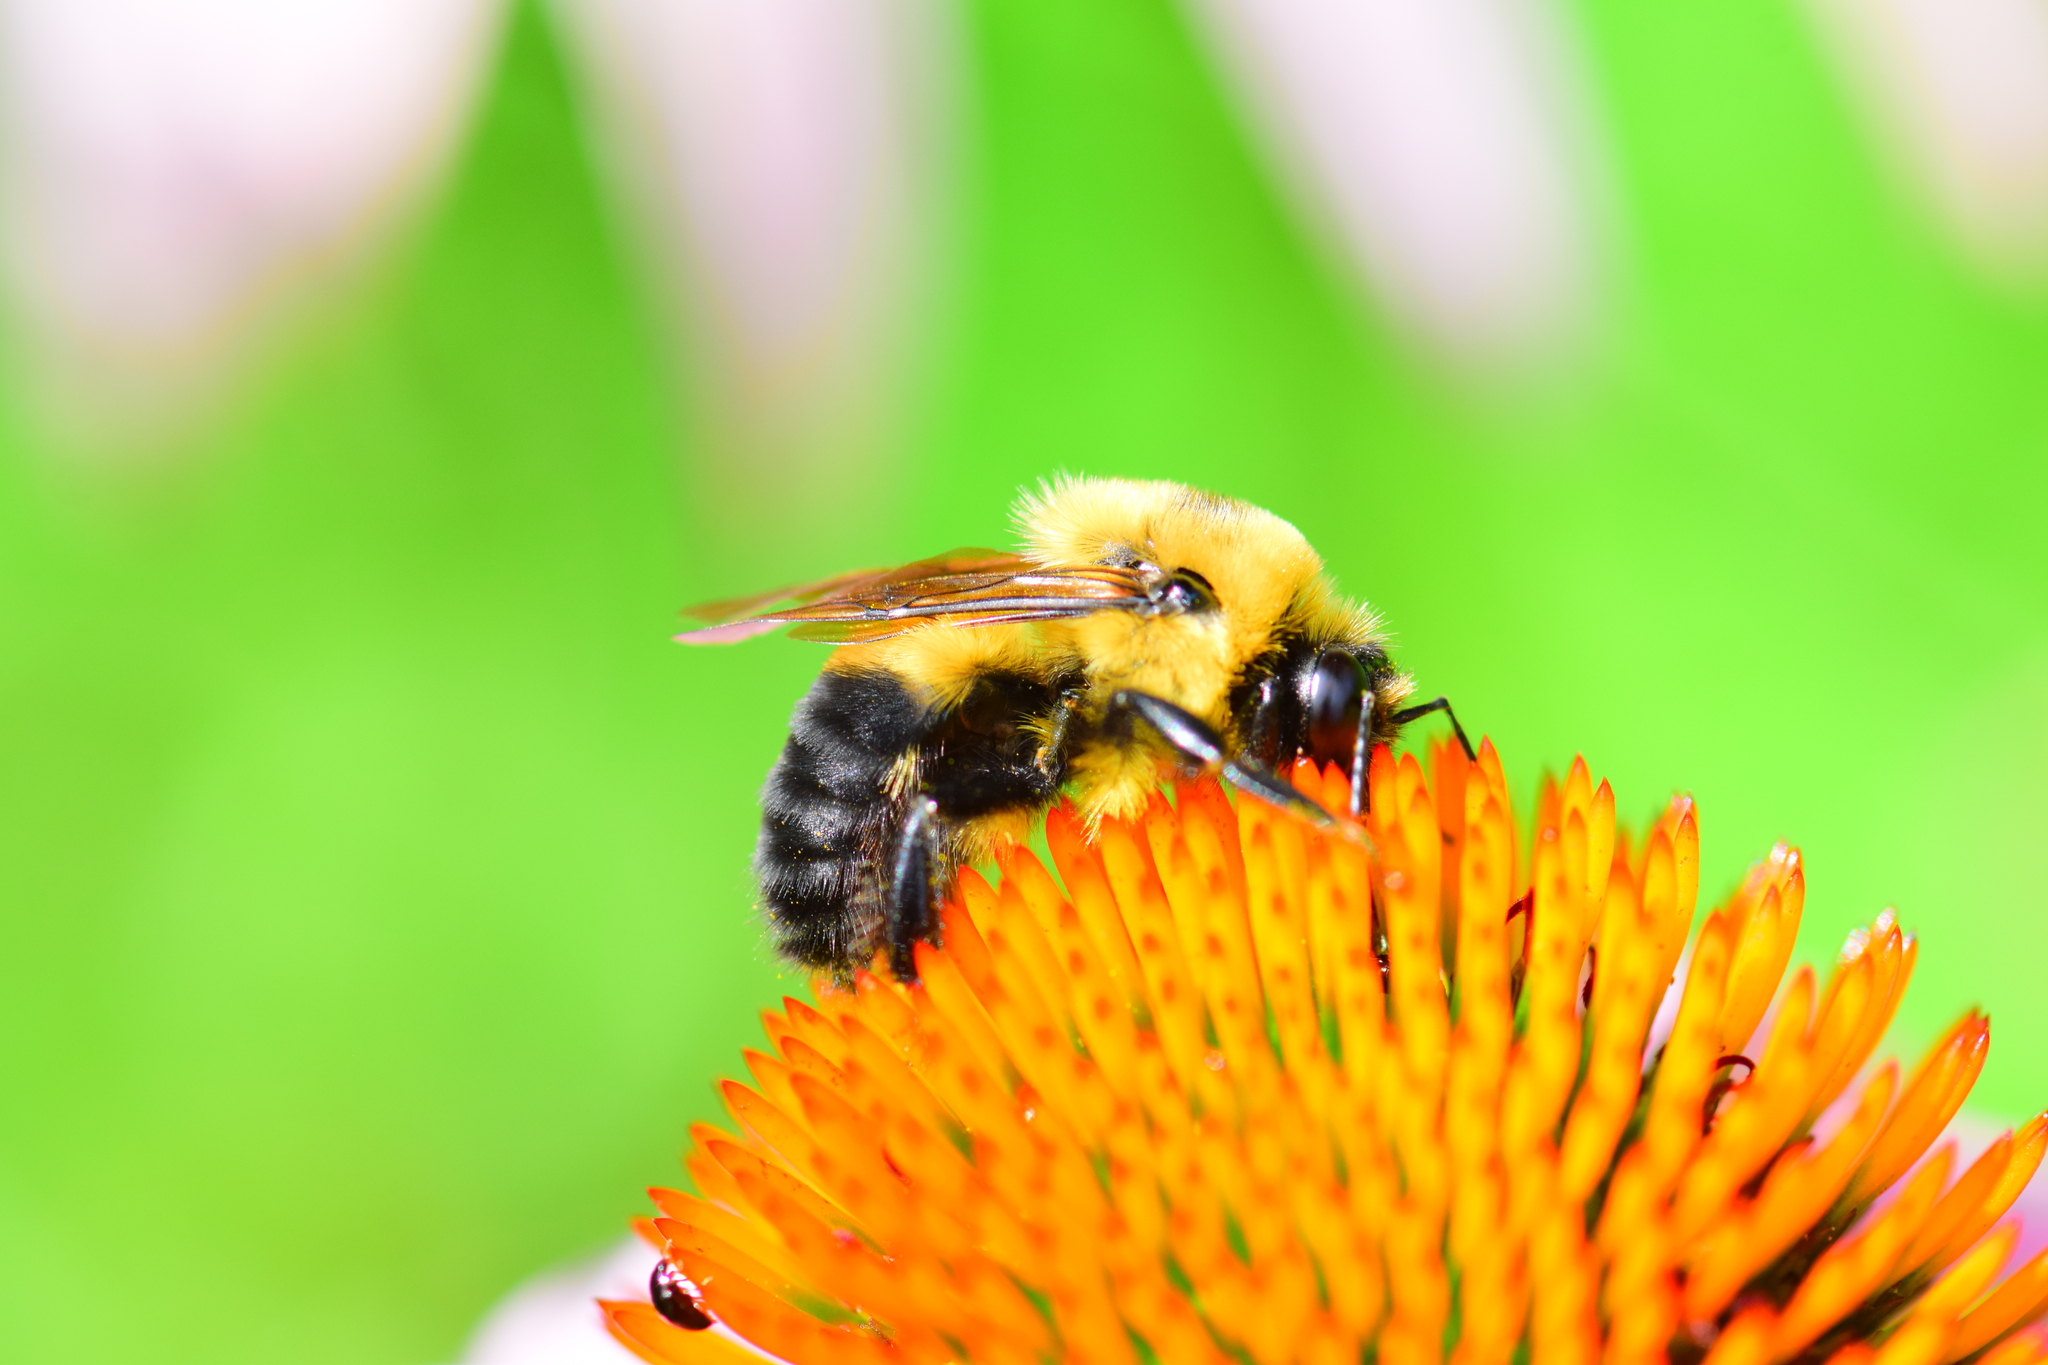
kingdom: Animalia
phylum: Arthropoda
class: Insecta
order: Hymenoptera
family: Apidae
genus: Bombus
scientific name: Bombus griseocollis
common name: Brown-belted bumble bee
